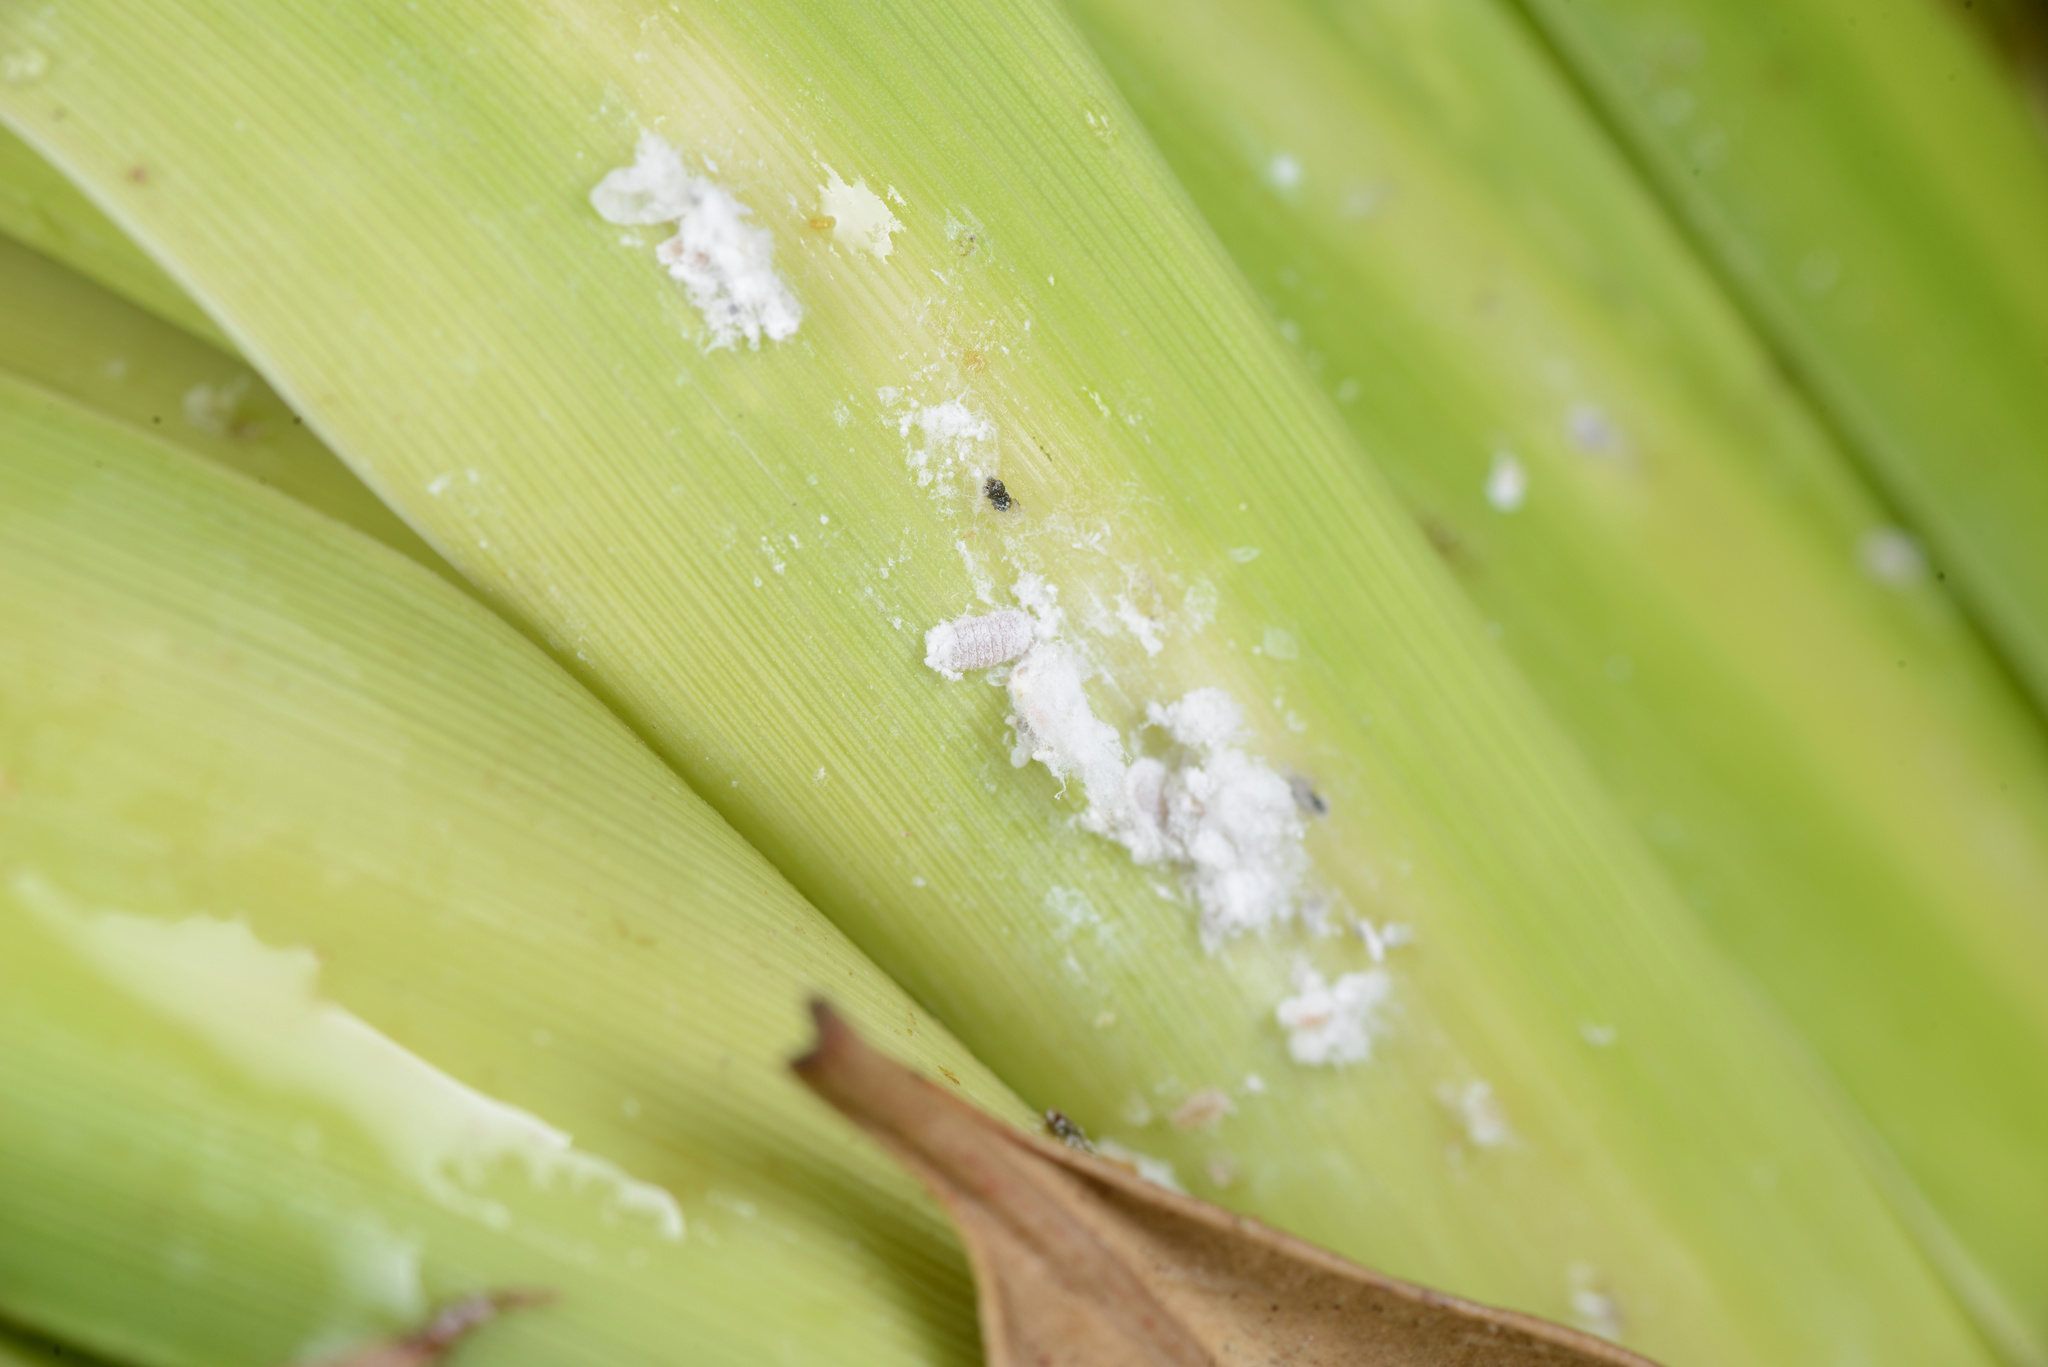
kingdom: Animalia
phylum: Arthropoda
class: Insecta
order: Hemiptera
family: Pseudococcidae
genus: Balanococcus
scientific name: Balanococcus cordylinidis
